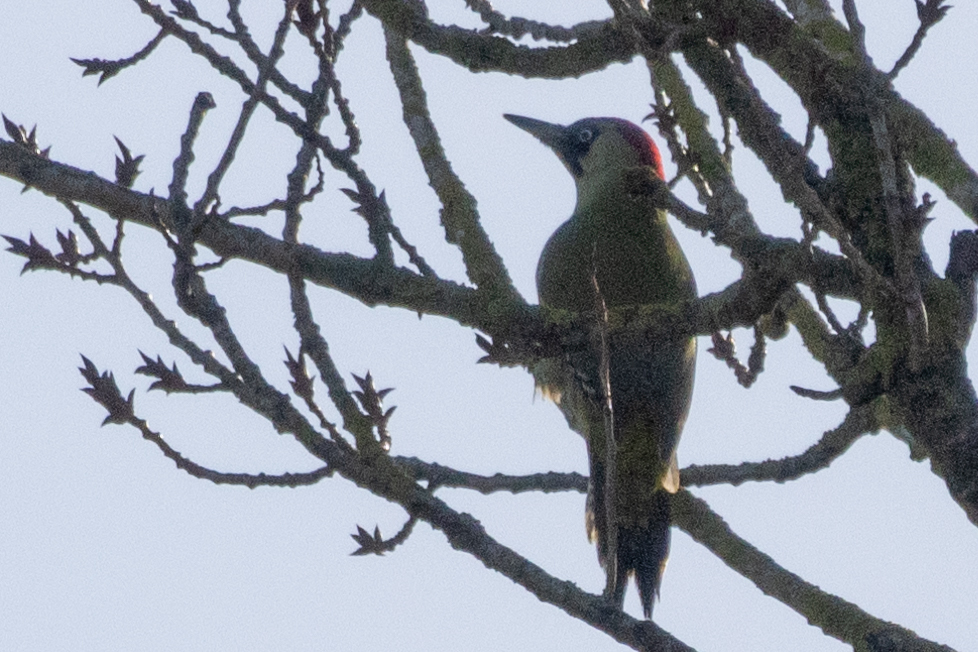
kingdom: Animalia
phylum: Chordata
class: Aves
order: Piciformes
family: Picidae
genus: Picus
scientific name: Picus viridis
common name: European green woodpecker
